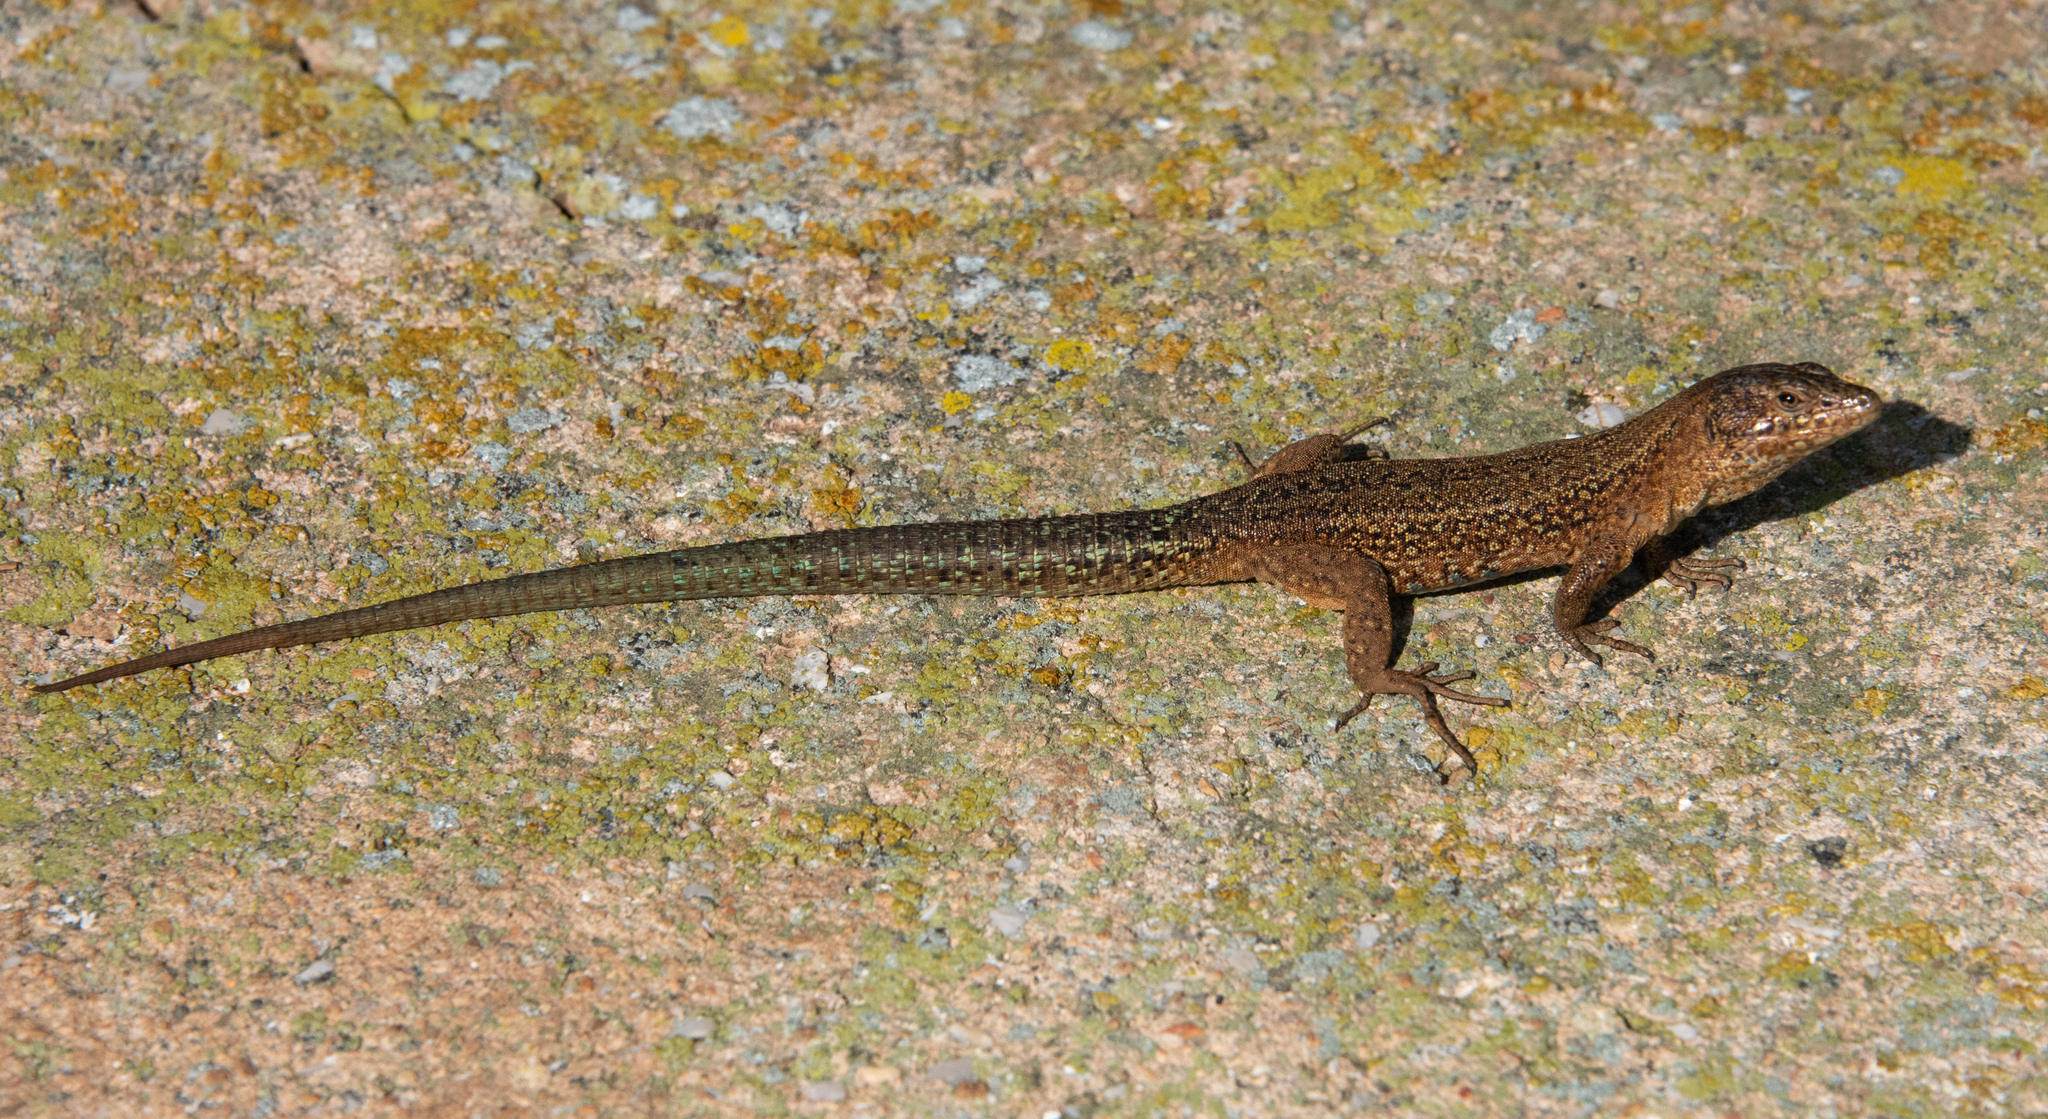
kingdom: Animalia
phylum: Chordata
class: Squamata
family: Lacertidae
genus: Podarcis
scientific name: Podarcis lilfordi
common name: Belearic lizard
